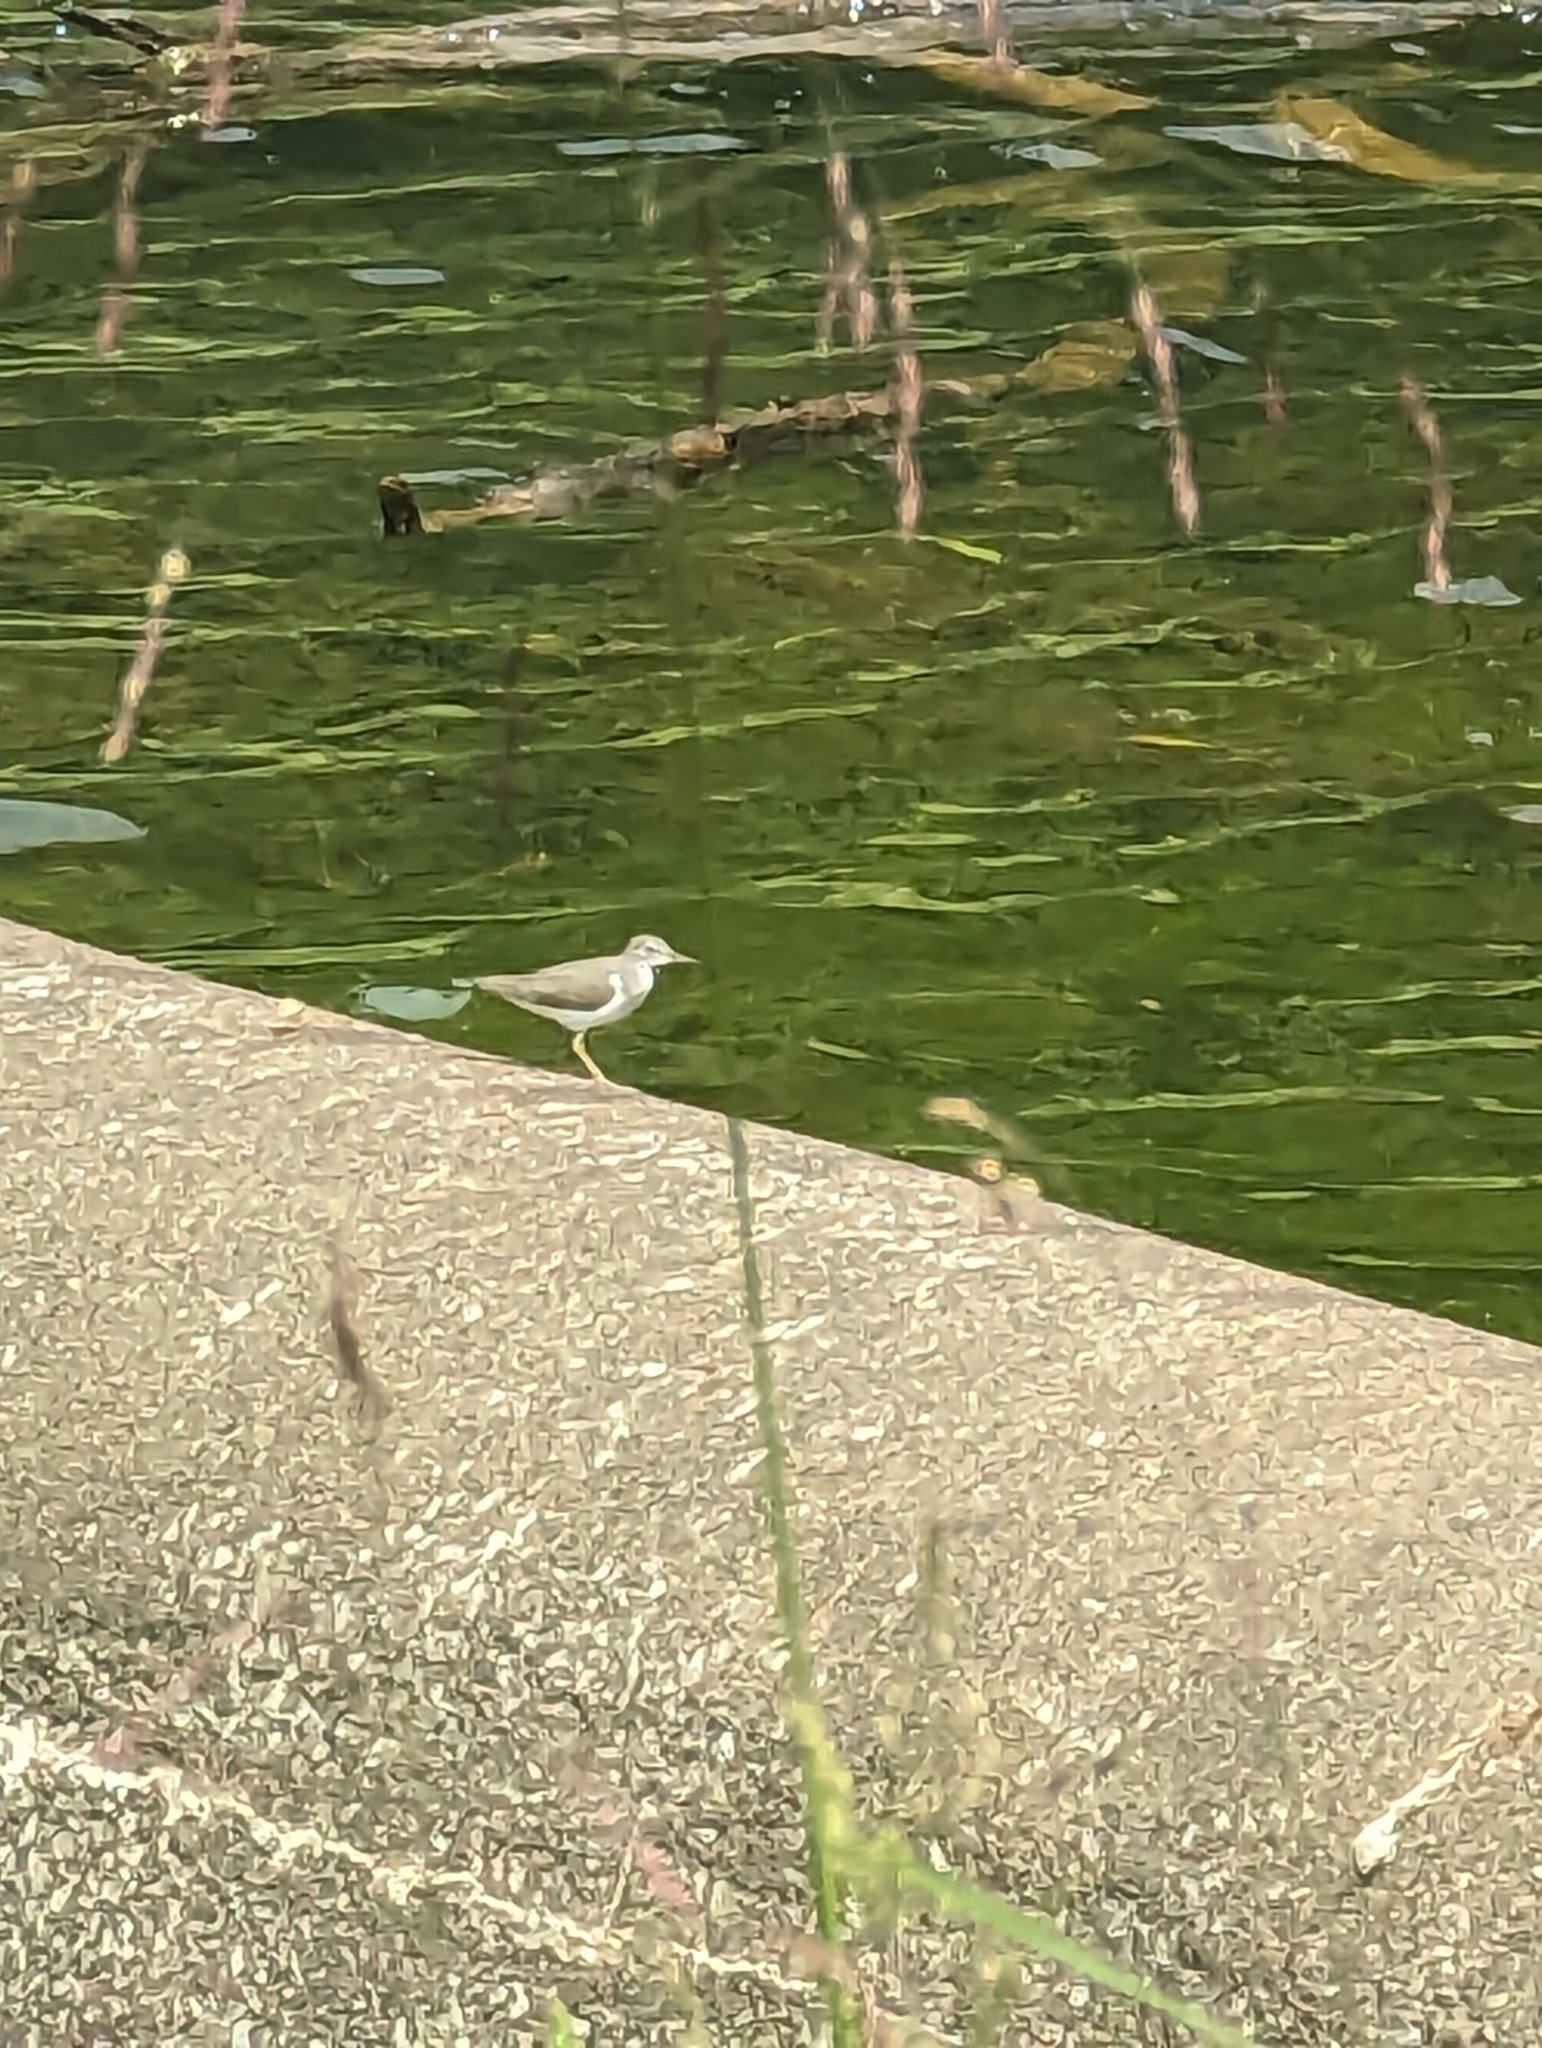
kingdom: Animalia
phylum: Chordata
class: Aves
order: Charadriiformes
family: Scolopacidae
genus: Actitis
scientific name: Actitis macularius
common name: Spotted sandpiper
